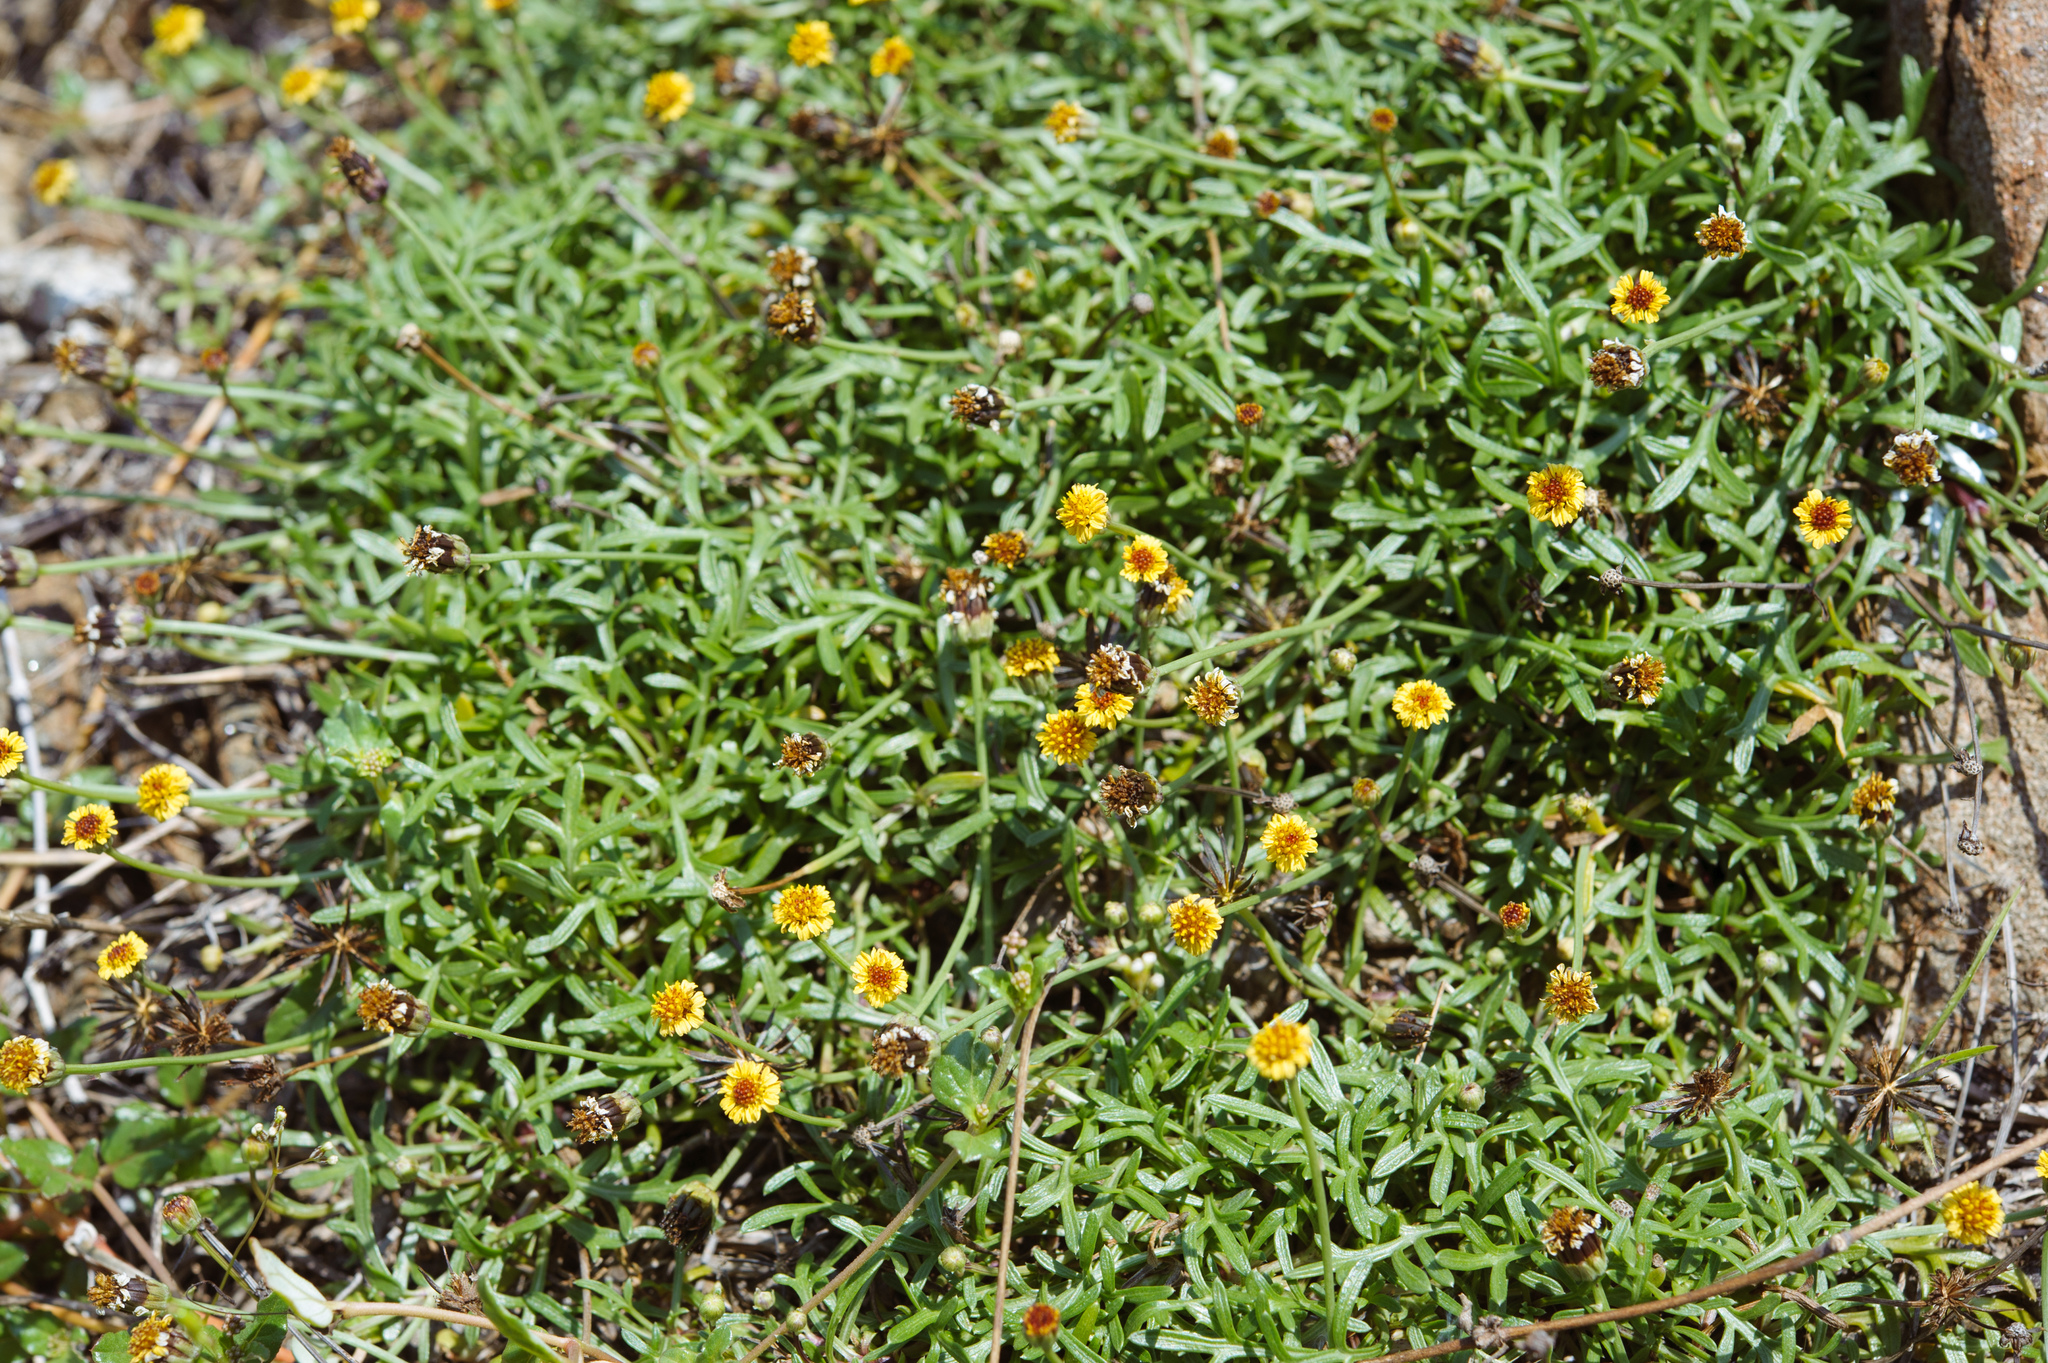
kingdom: Plantae
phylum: Tracheophyta
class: Magnoliopsida
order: Asterales
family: Asteraceae
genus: Glossocardia
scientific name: Glossocardia bidens
